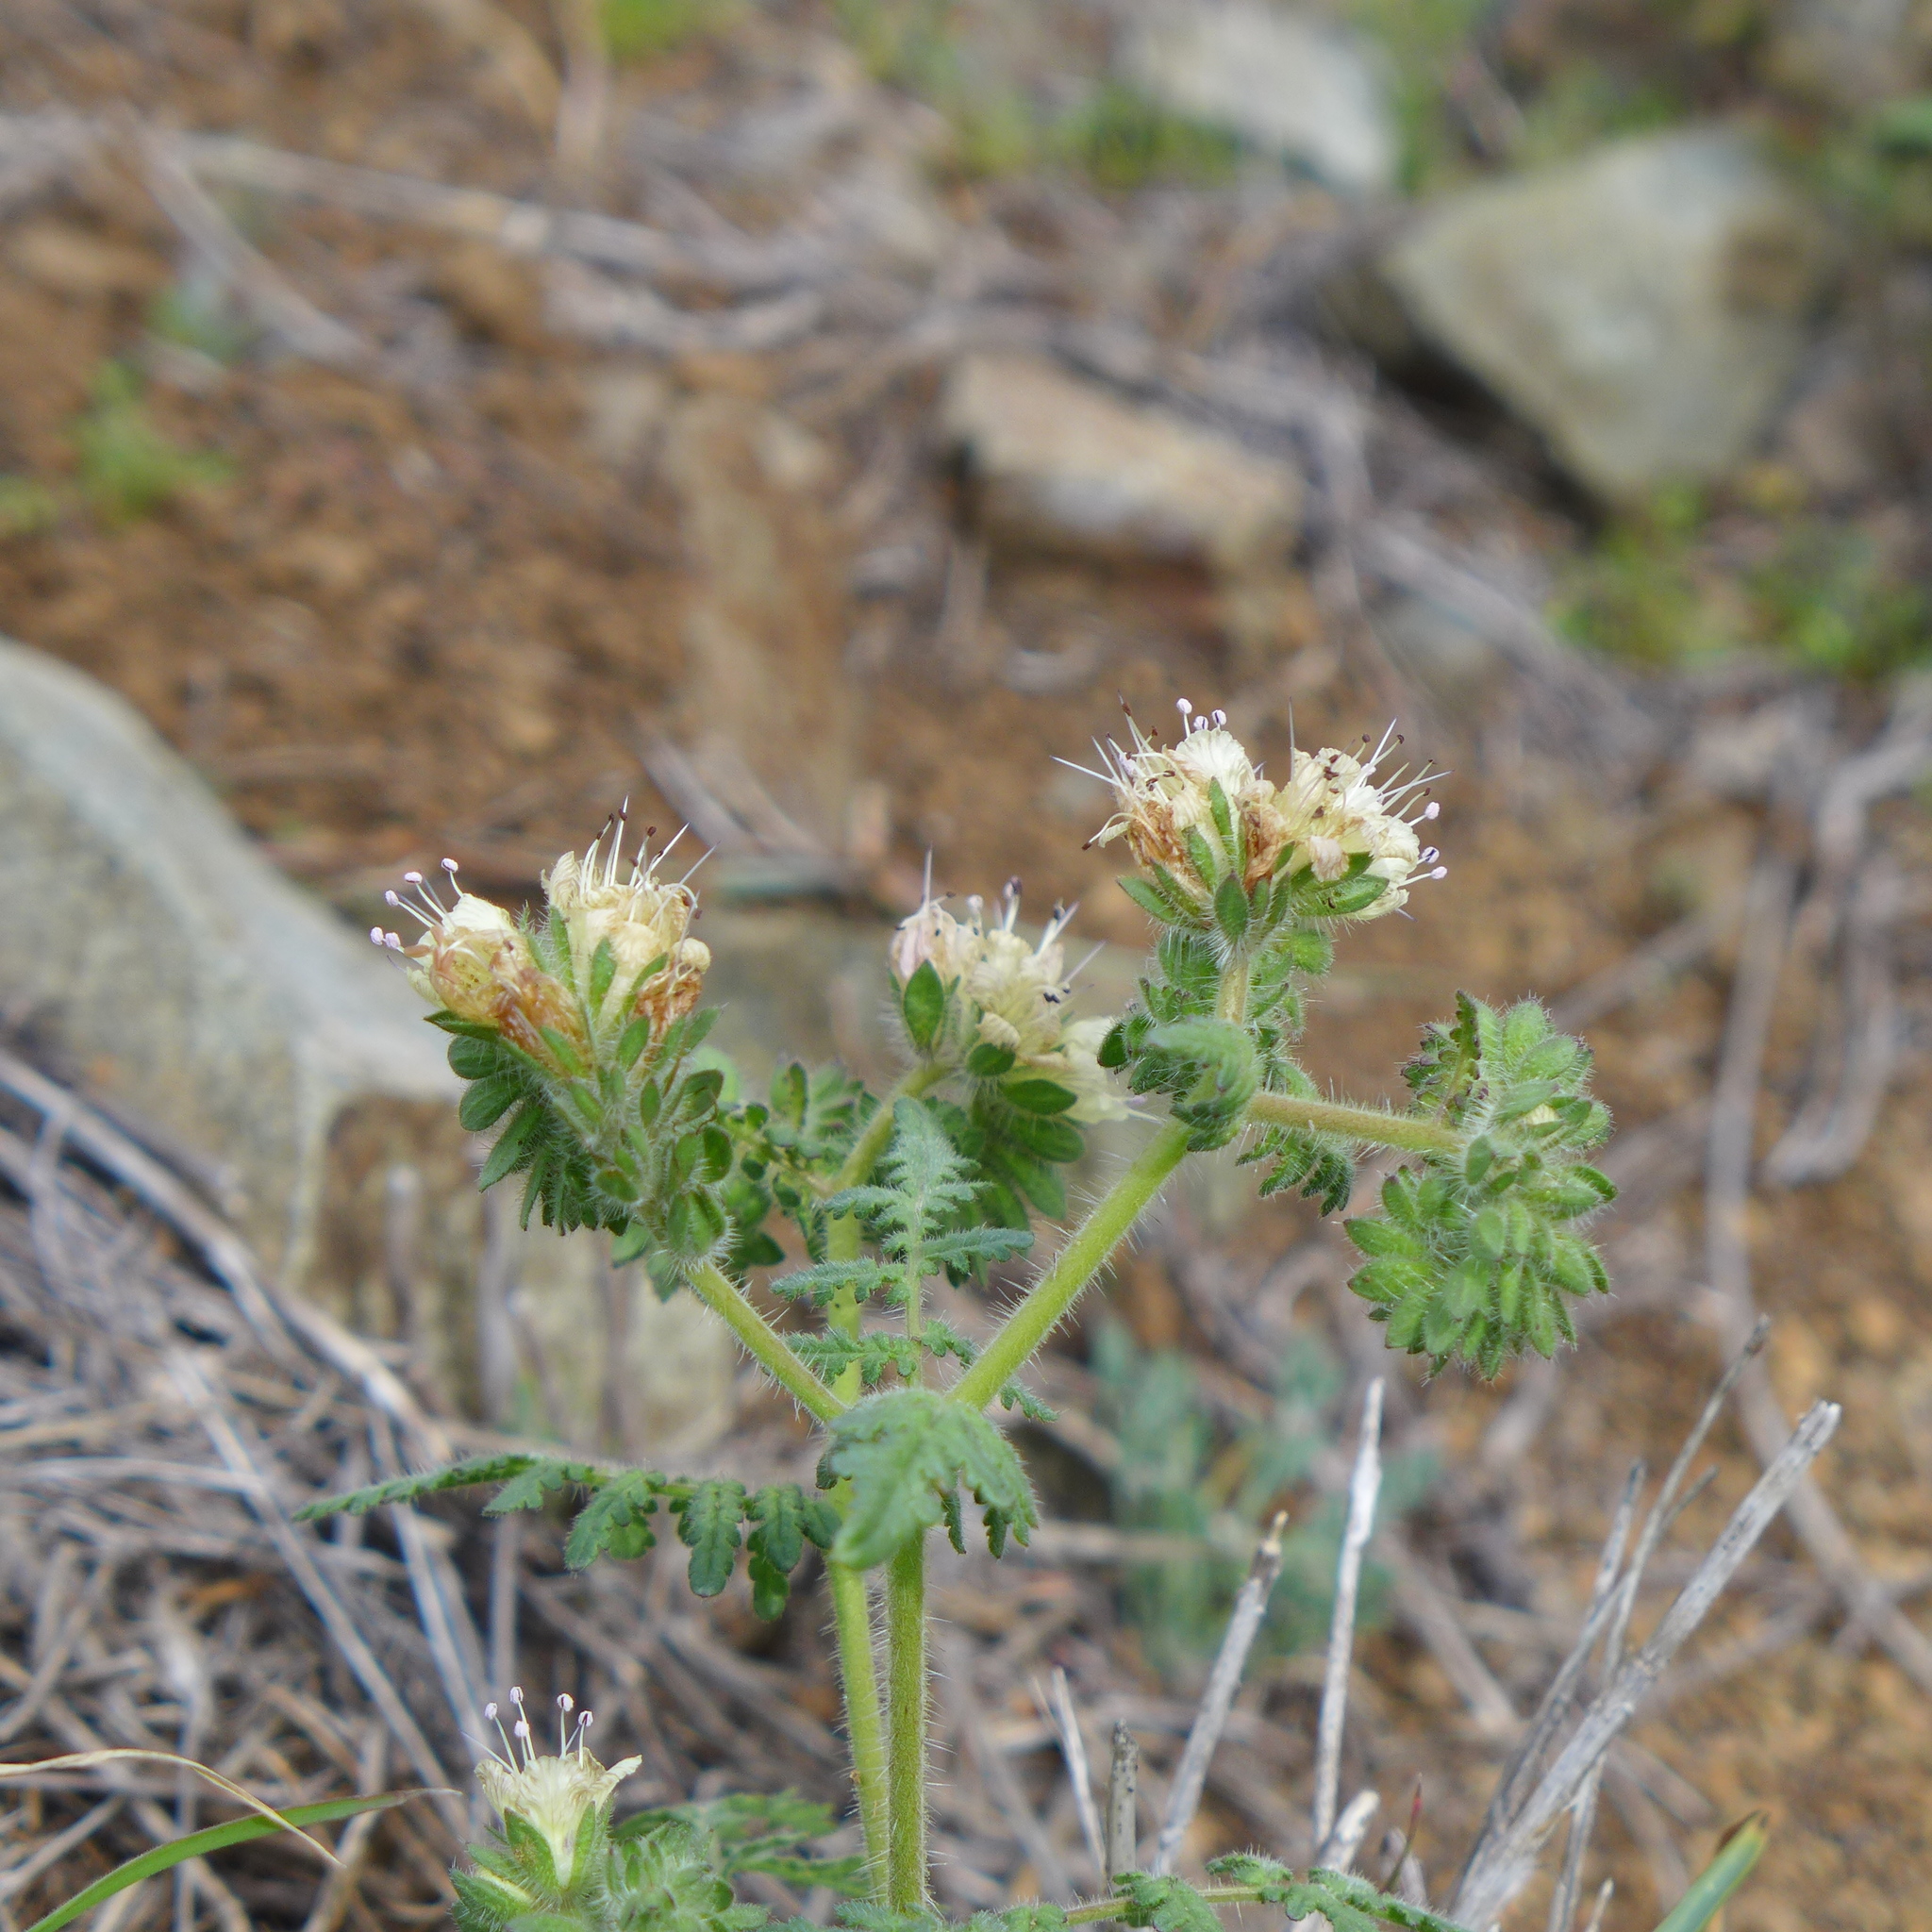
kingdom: Plantae
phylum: Tracheophyta
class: Magnoliopsida
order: Boraginales
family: Hydrophyllaceae
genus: Phacelia
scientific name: Phacelia distans
